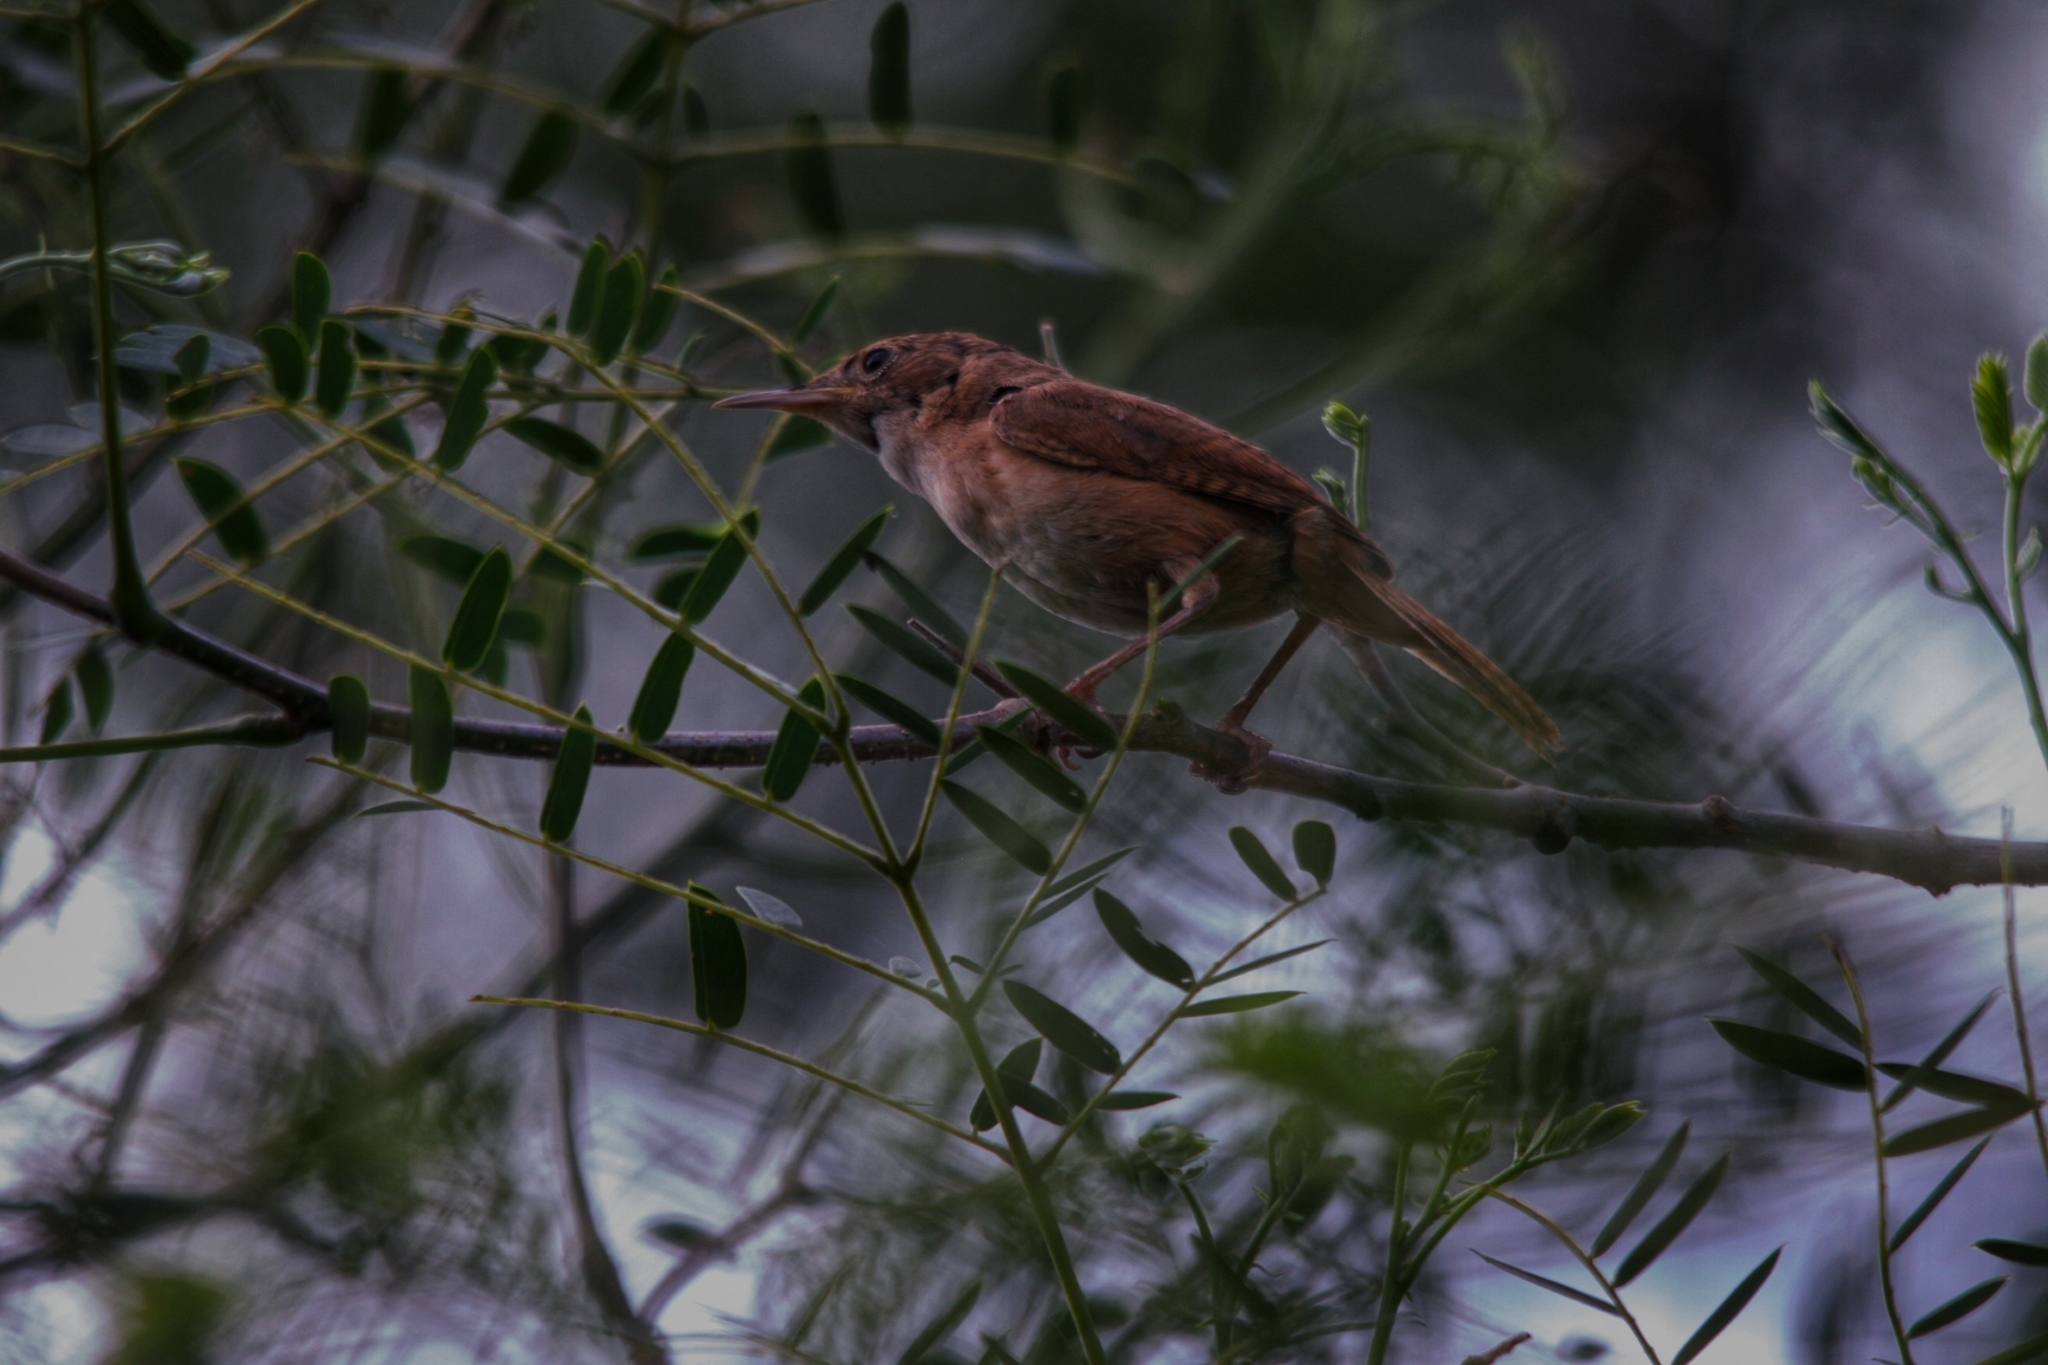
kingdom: Animalia
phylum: Chordata
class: Aves
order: Passeriformes
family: Troglodytidae
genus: Troglodytes
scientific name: Troglodytes aedon
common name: House wren
